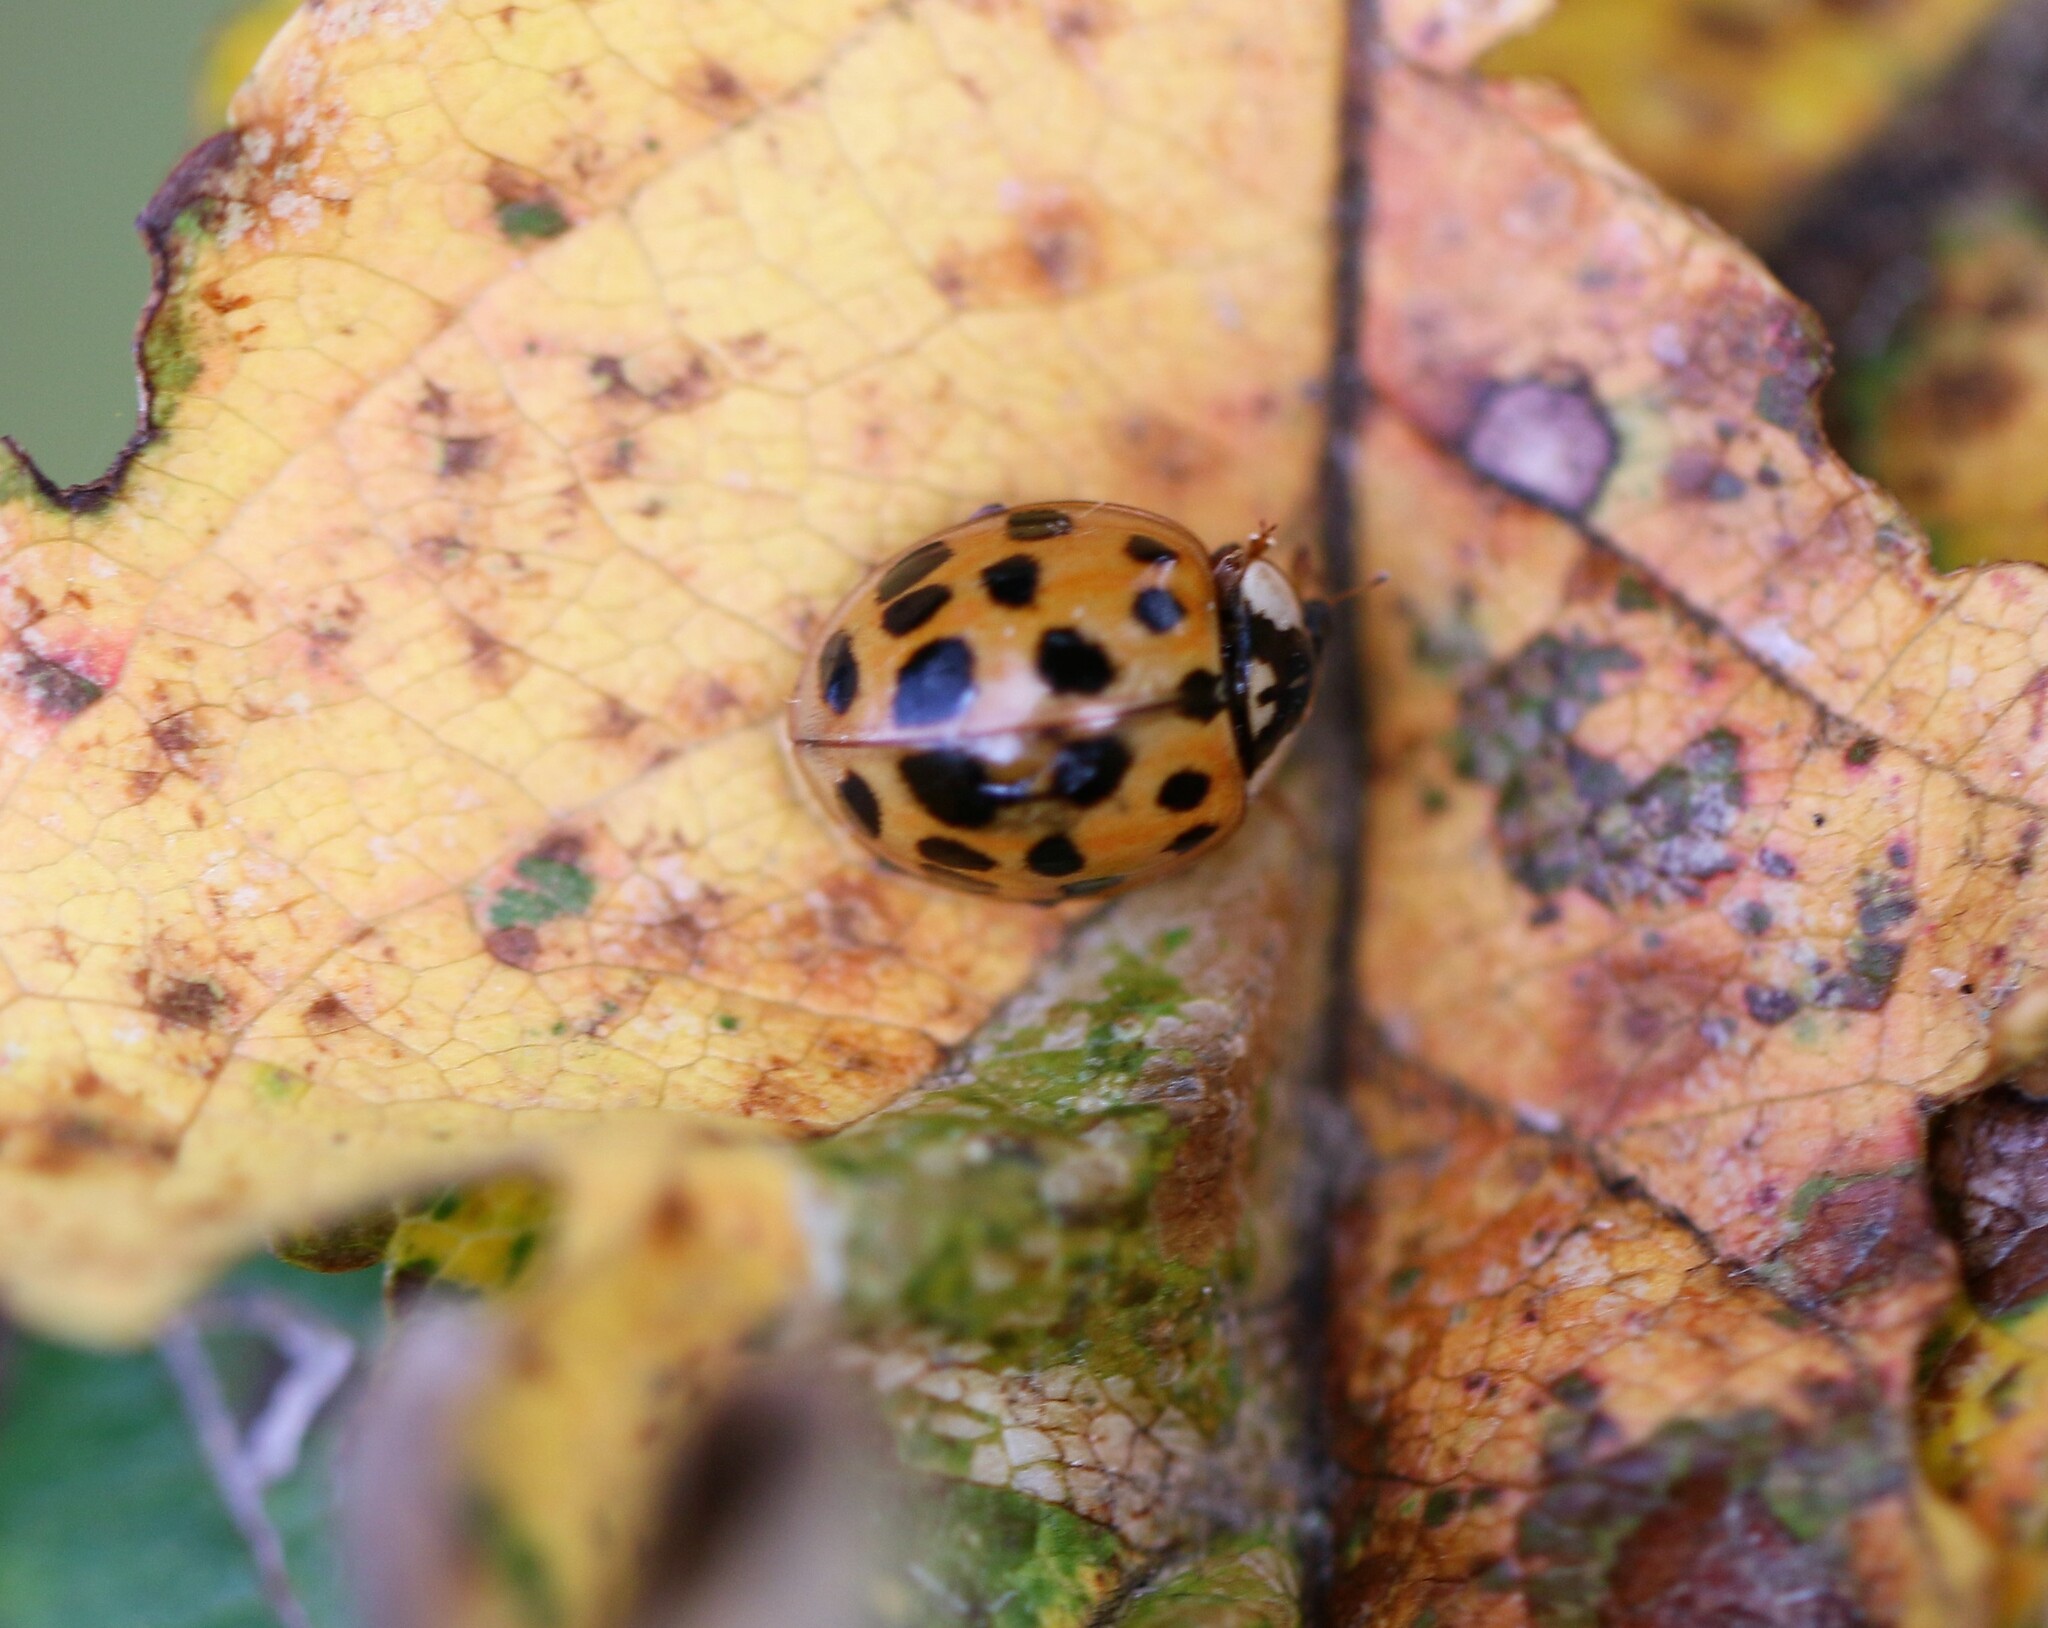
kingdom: Animalia
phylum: Arthropoda
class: Insecta
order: Coleoptera
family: Coccinellidae
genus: Harmonia
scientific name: Harmonia axyridis
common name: Harlequin ladybird
